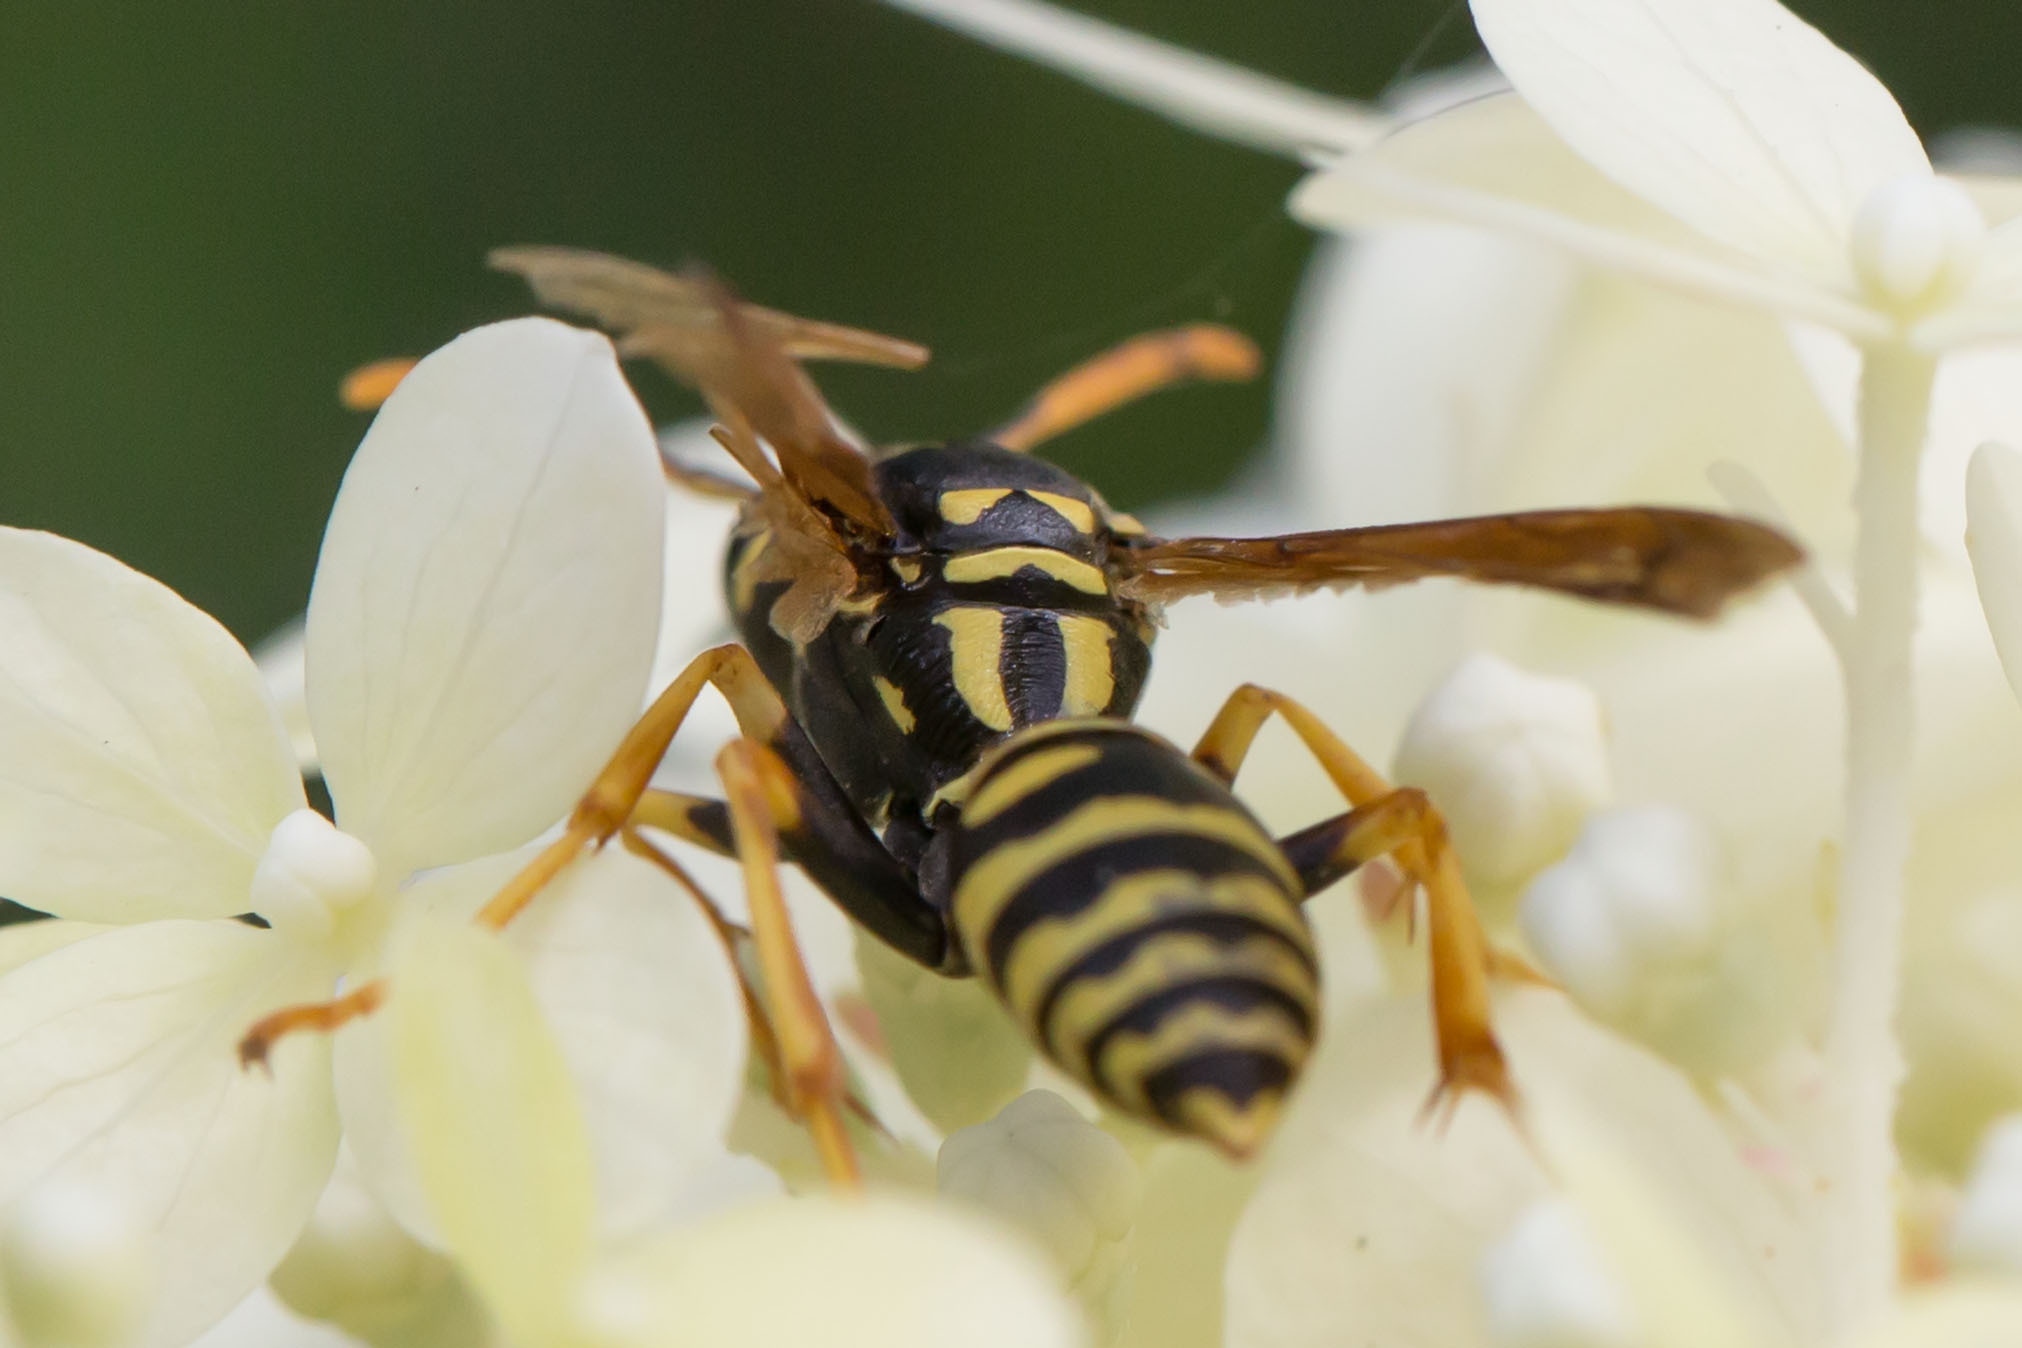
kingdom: Animalia
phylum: Arthropoda
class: Insecta
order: Hymenoptera
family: Eumenidae
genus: Polistes
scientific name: Polistes dominula
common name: Paper wasp
